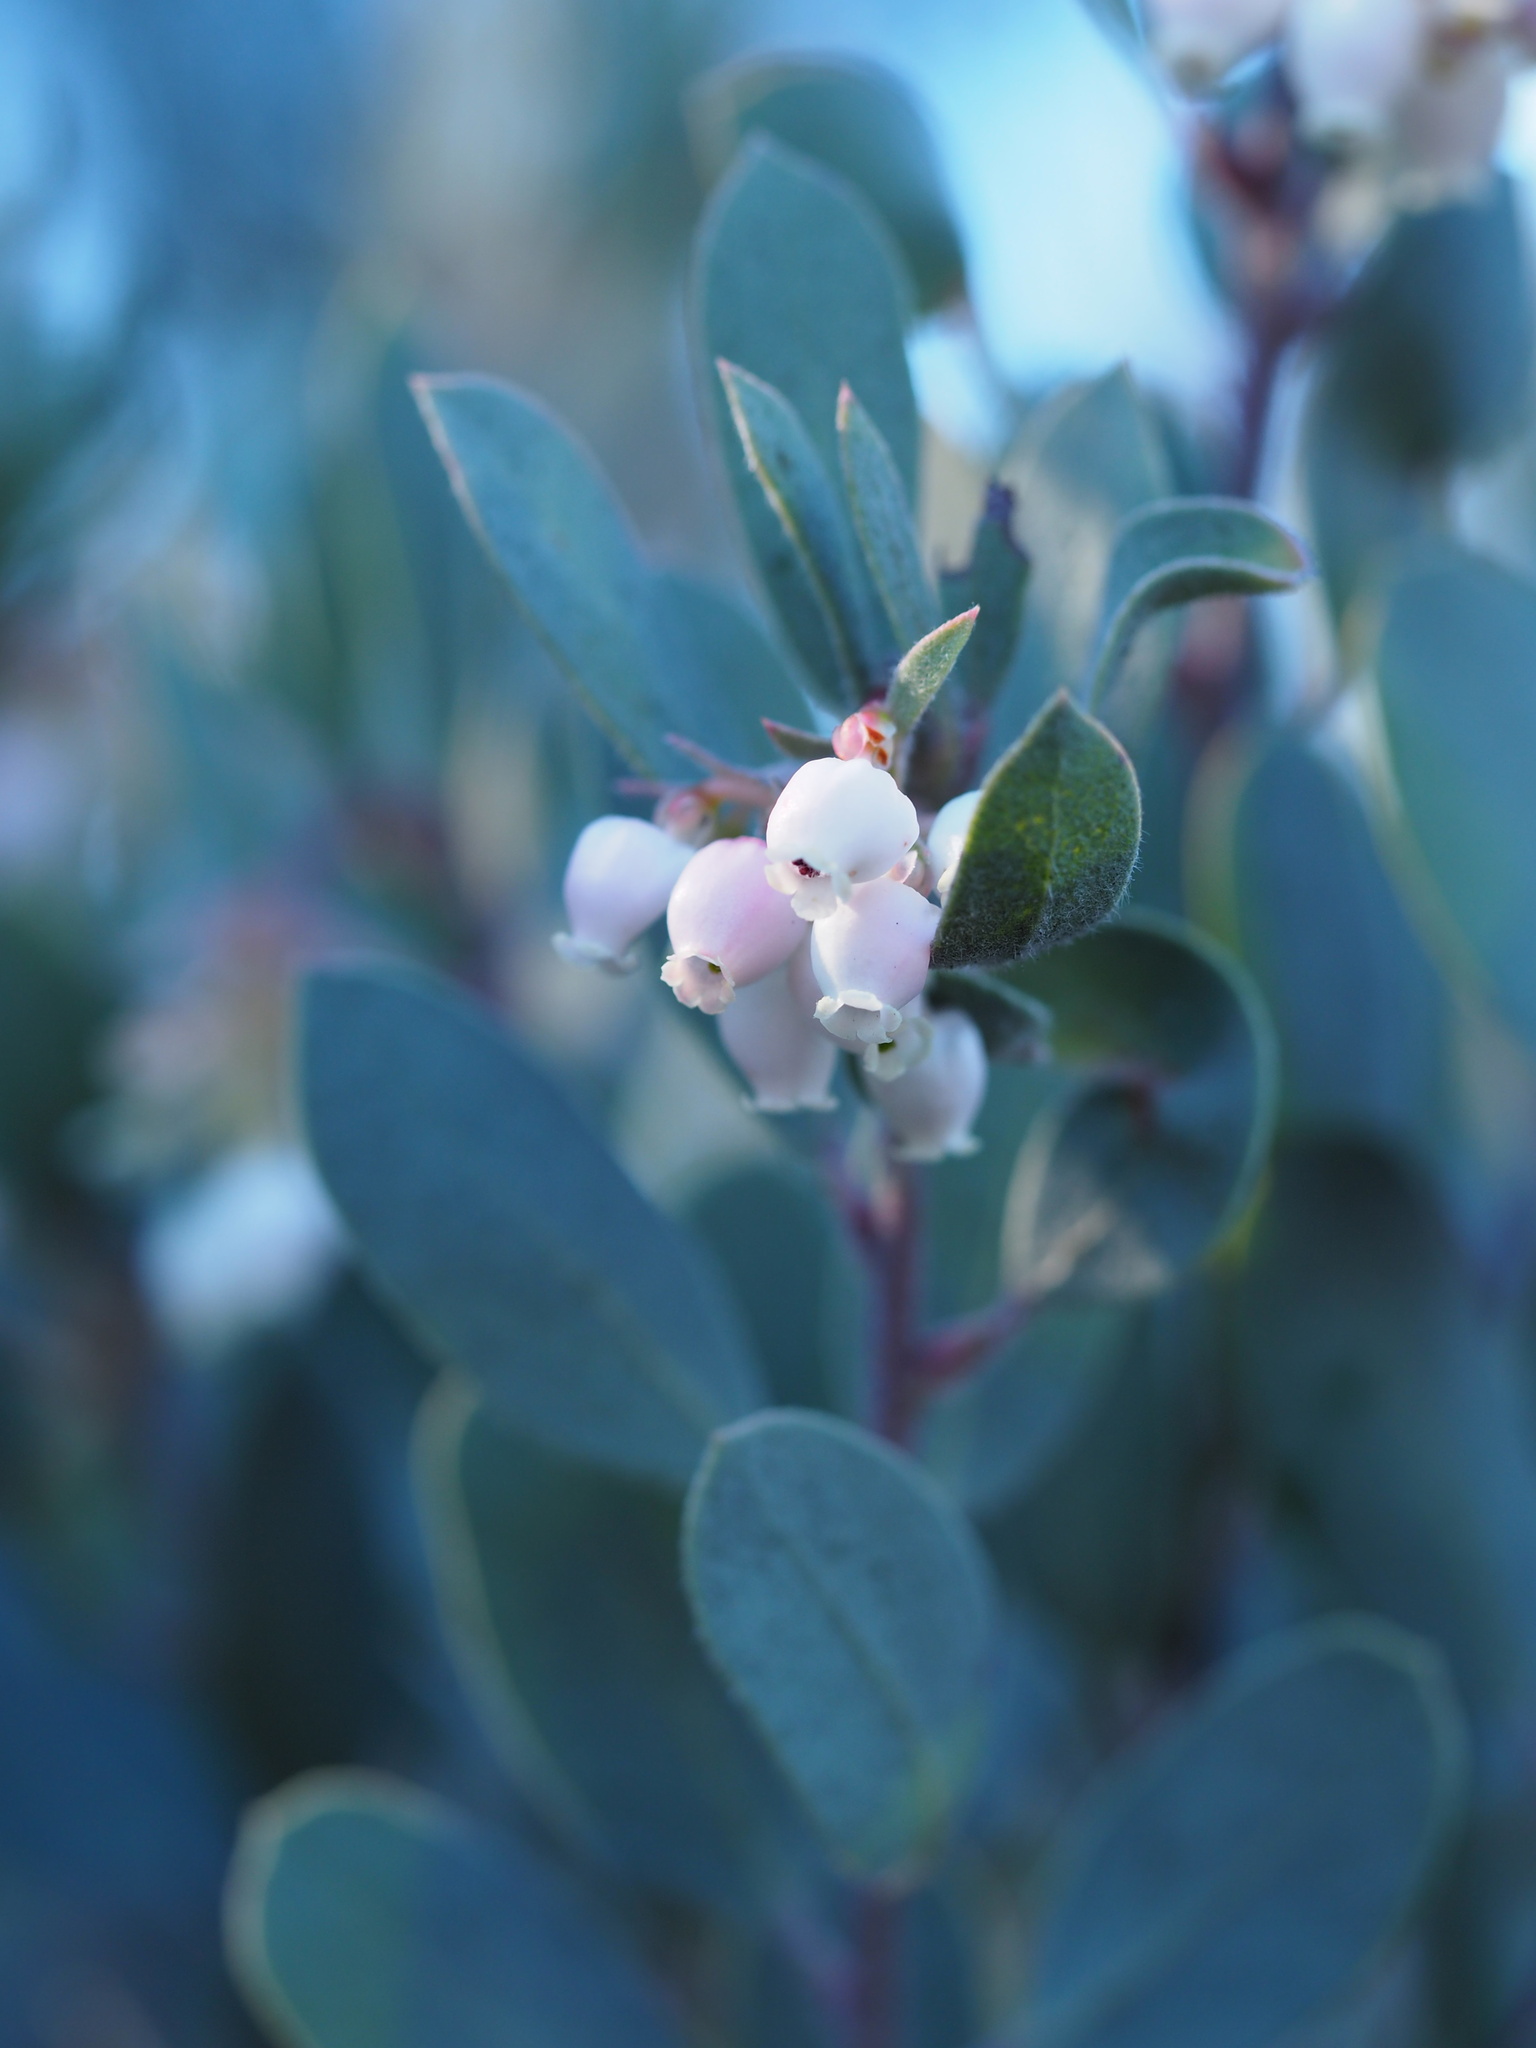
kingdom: Plantae
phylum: Tracheophyta
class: Magnoliopsida
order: Ericales
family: Ericaceae
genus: Arctostaphylos
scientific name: Arctostaphylos silvicola
